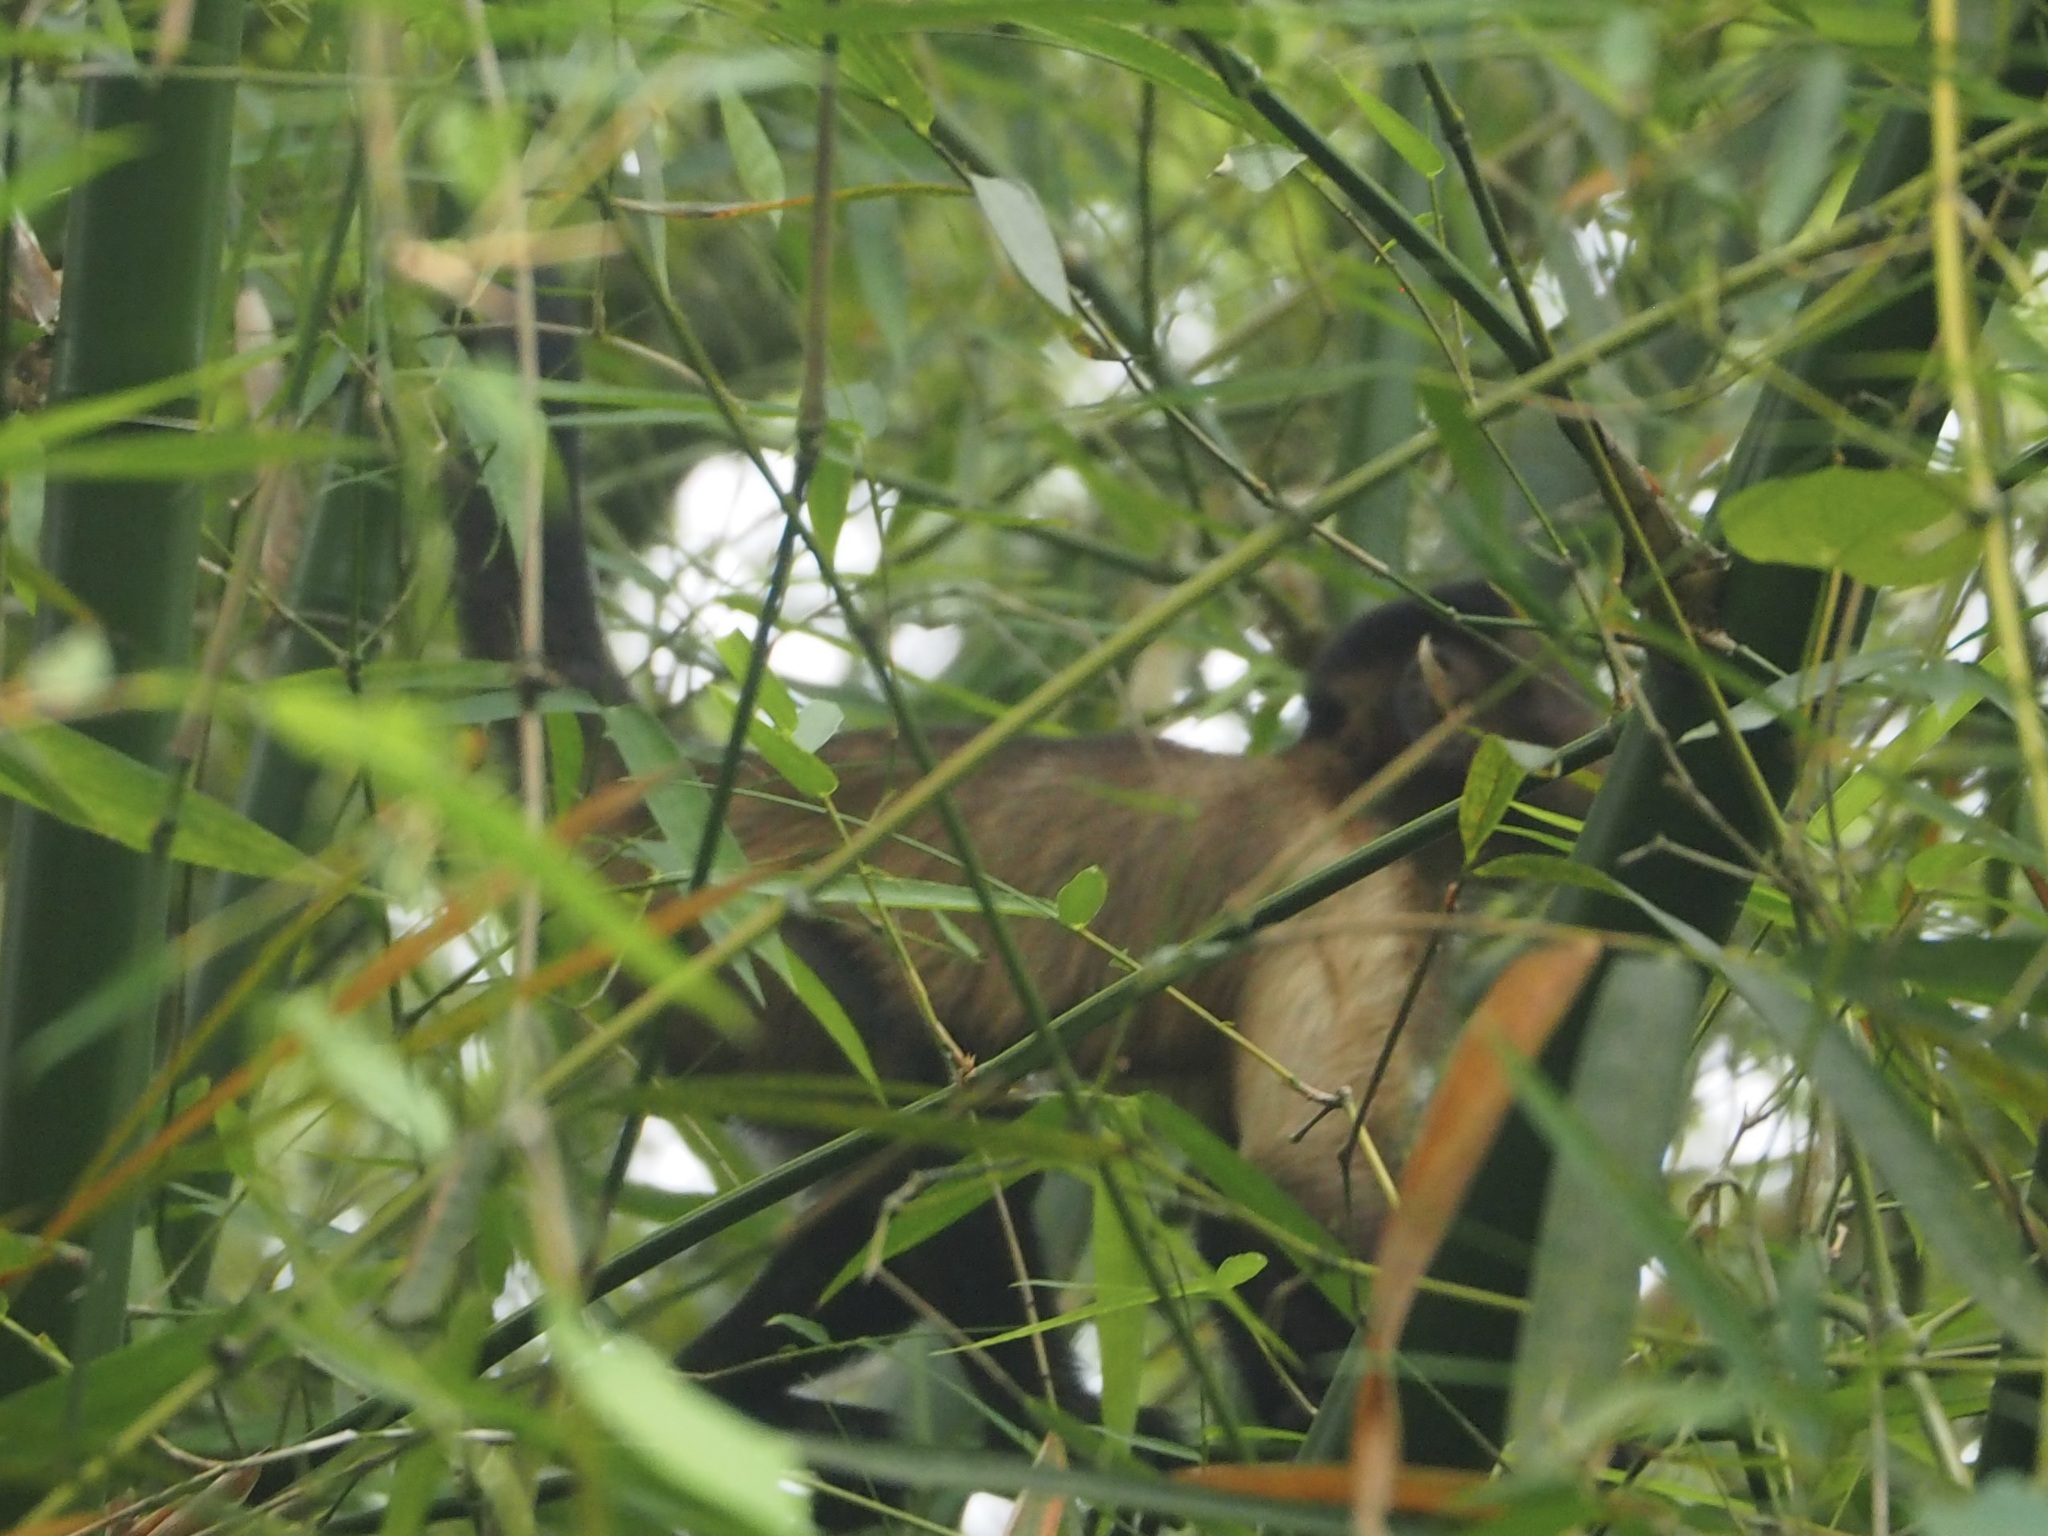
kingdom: Animalia
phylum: Chordata
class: Mammalia
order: Primates
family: Cebidae
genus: Sapajus
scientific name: Sapajus apella
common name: Tufted capuchin
